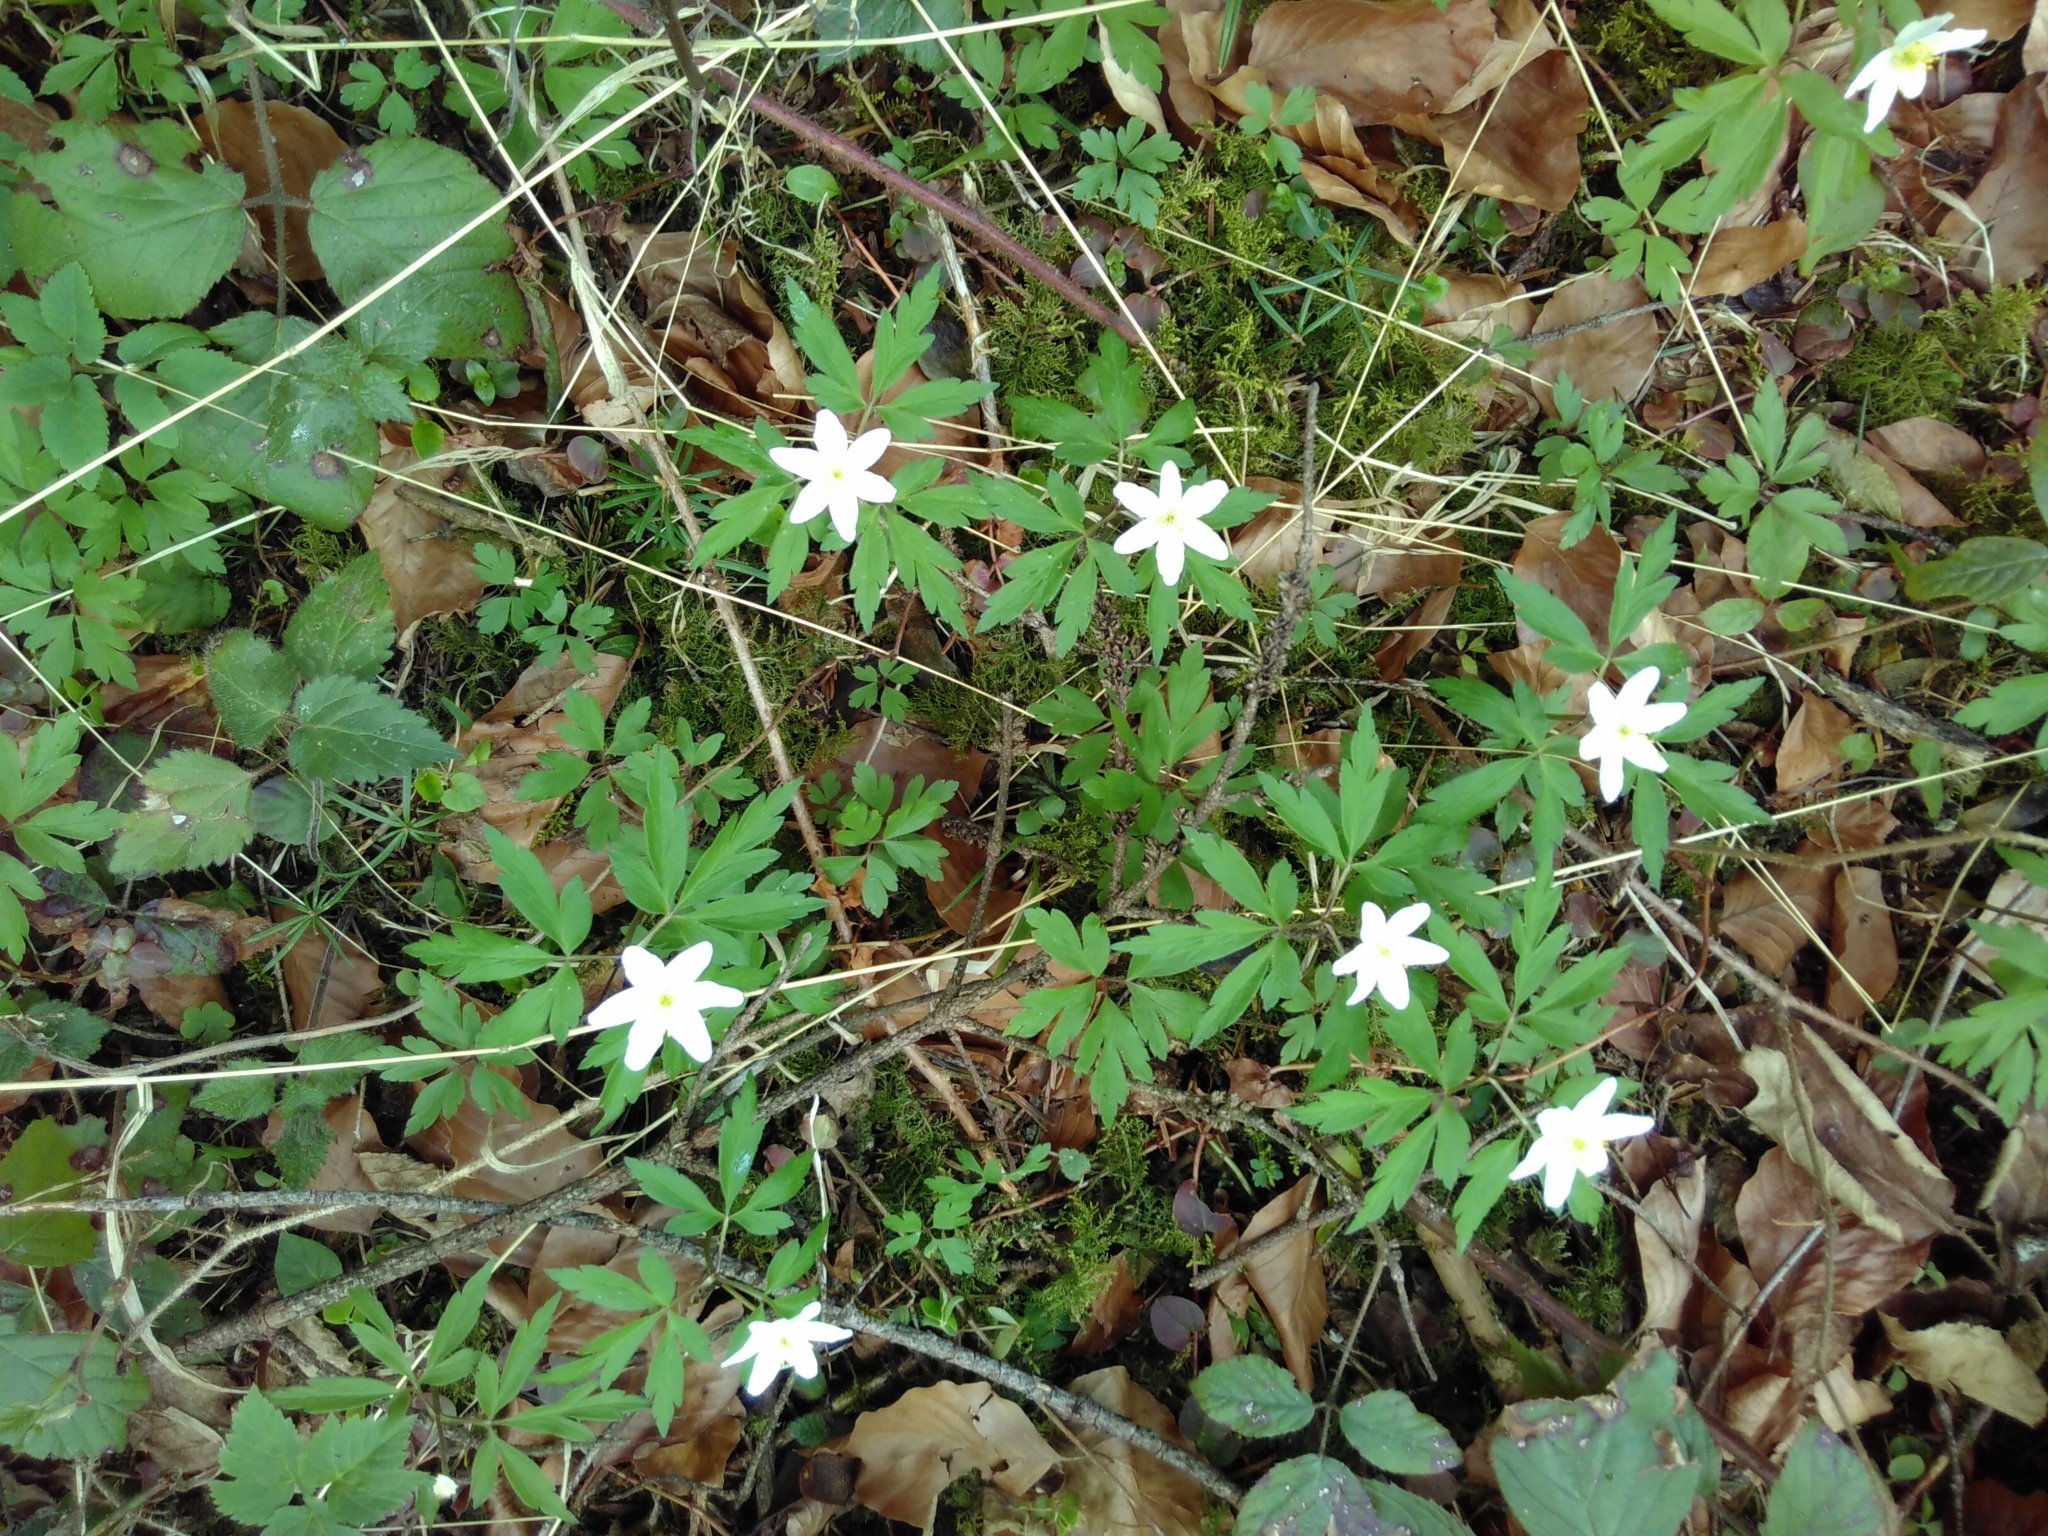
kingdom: Plantae
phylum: Tracheophyta
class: Magnoliopsida
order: Ranunculales
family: Ranunculaceae
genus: Anemone
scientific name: Anemone nemorosa
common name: Wood anemone
